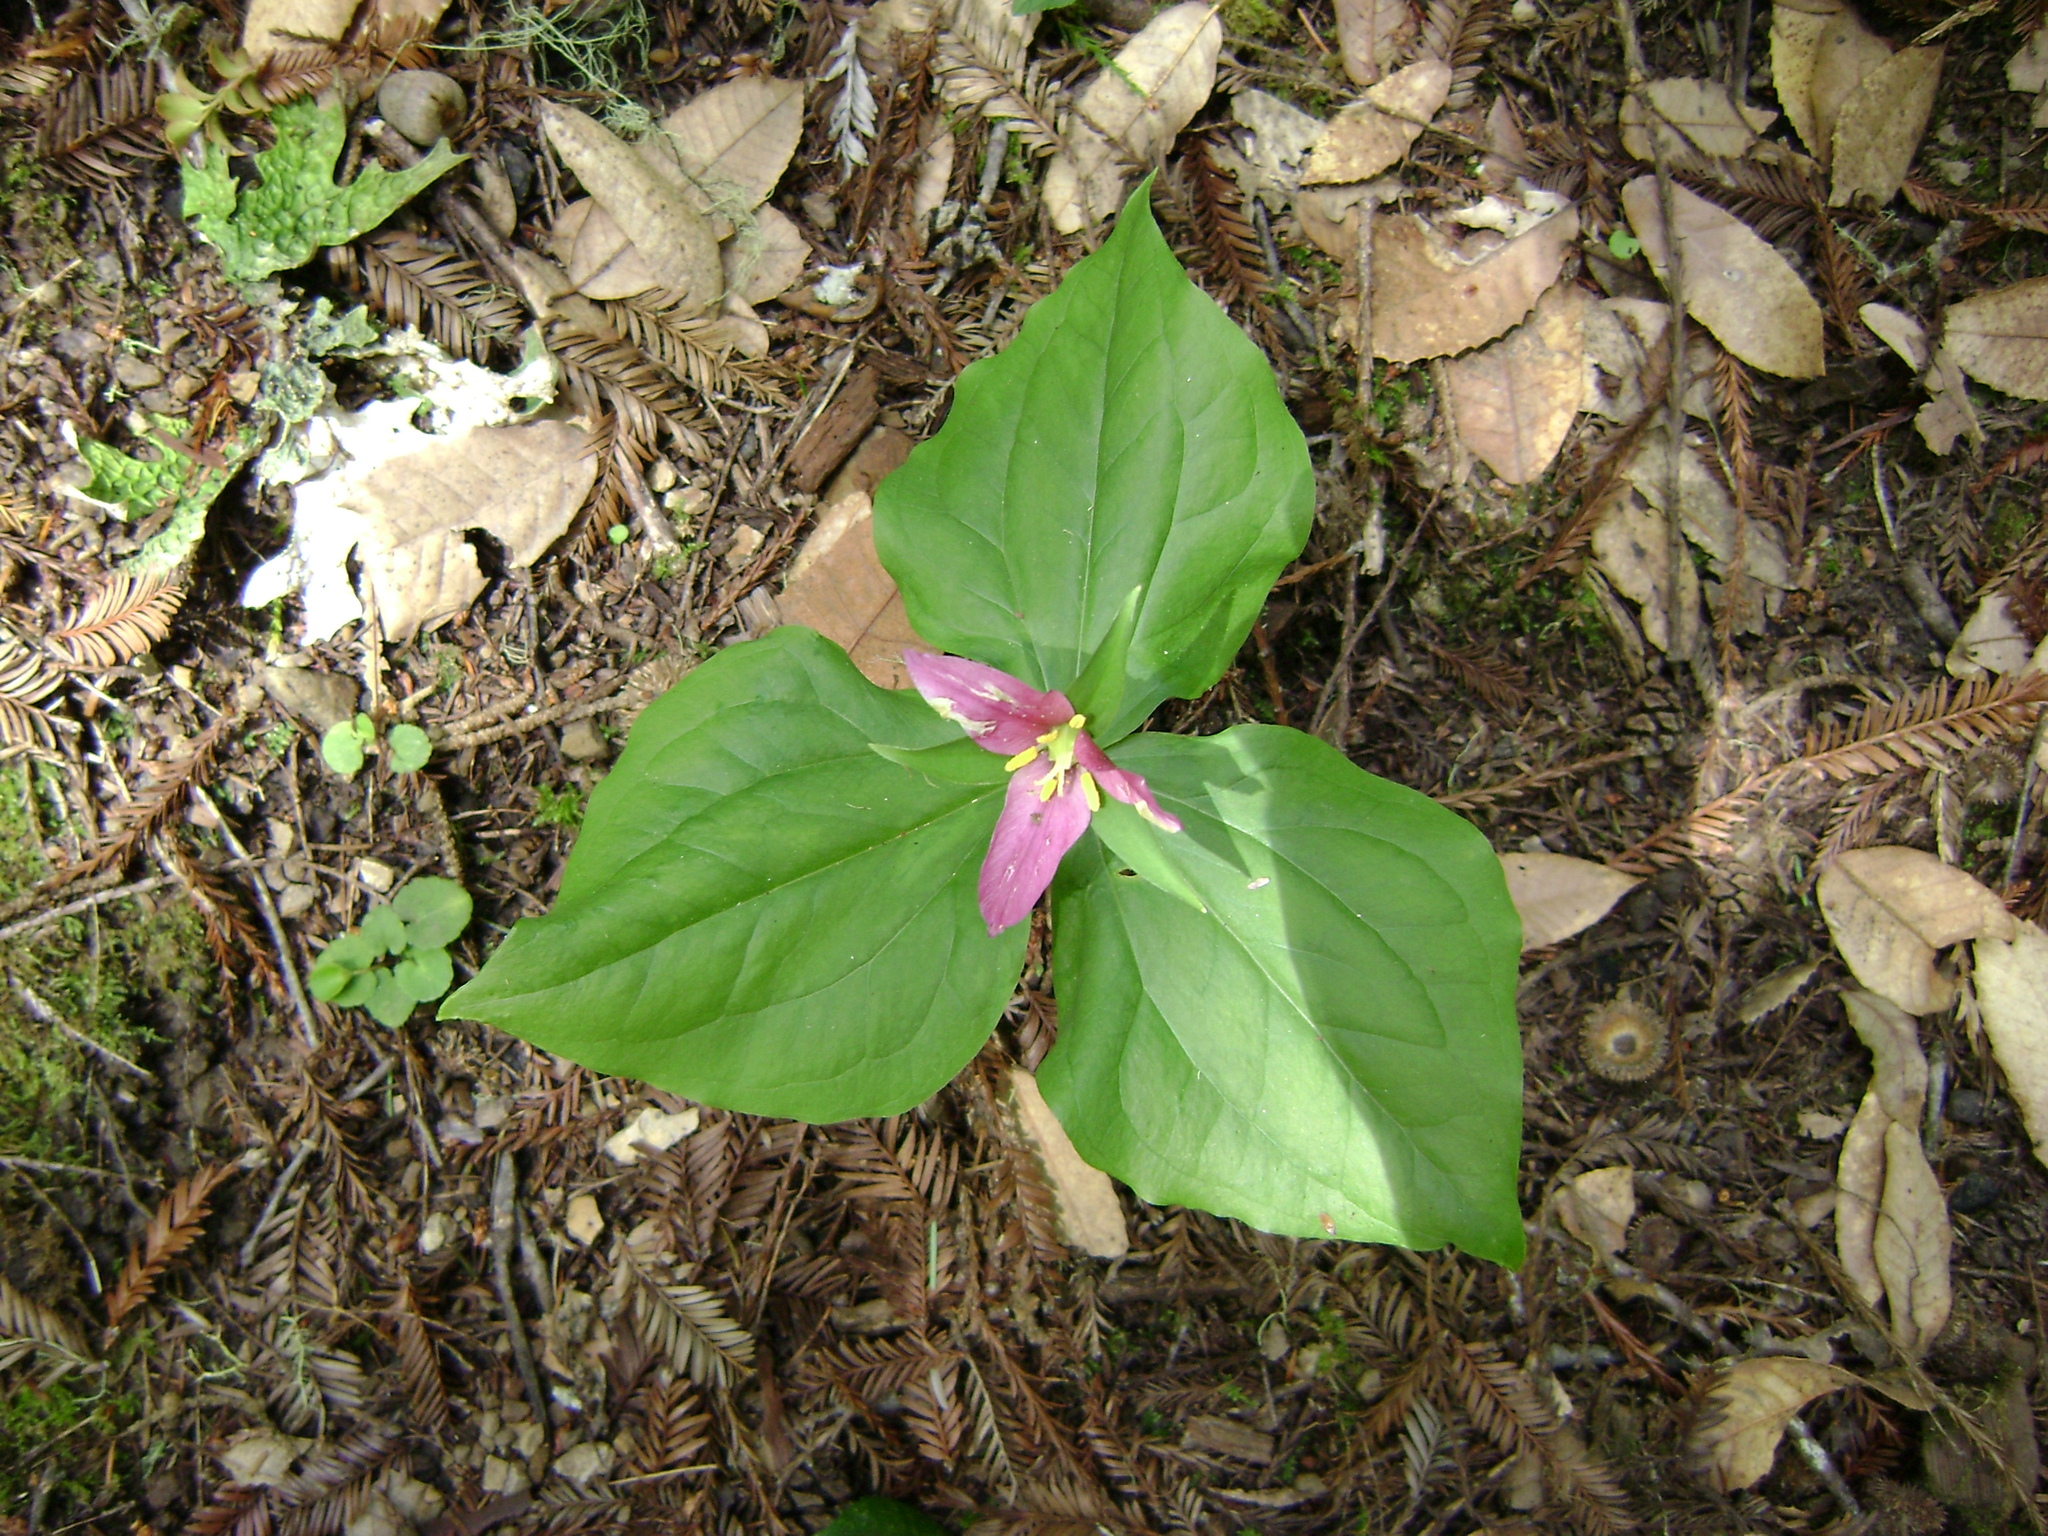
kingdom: Plantae
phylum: Tracheophyta
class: Liliopsida
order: Liliales
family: Melanthiaceae
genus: Trillium
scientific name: Trillium ovatum
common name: Pacific trillium
